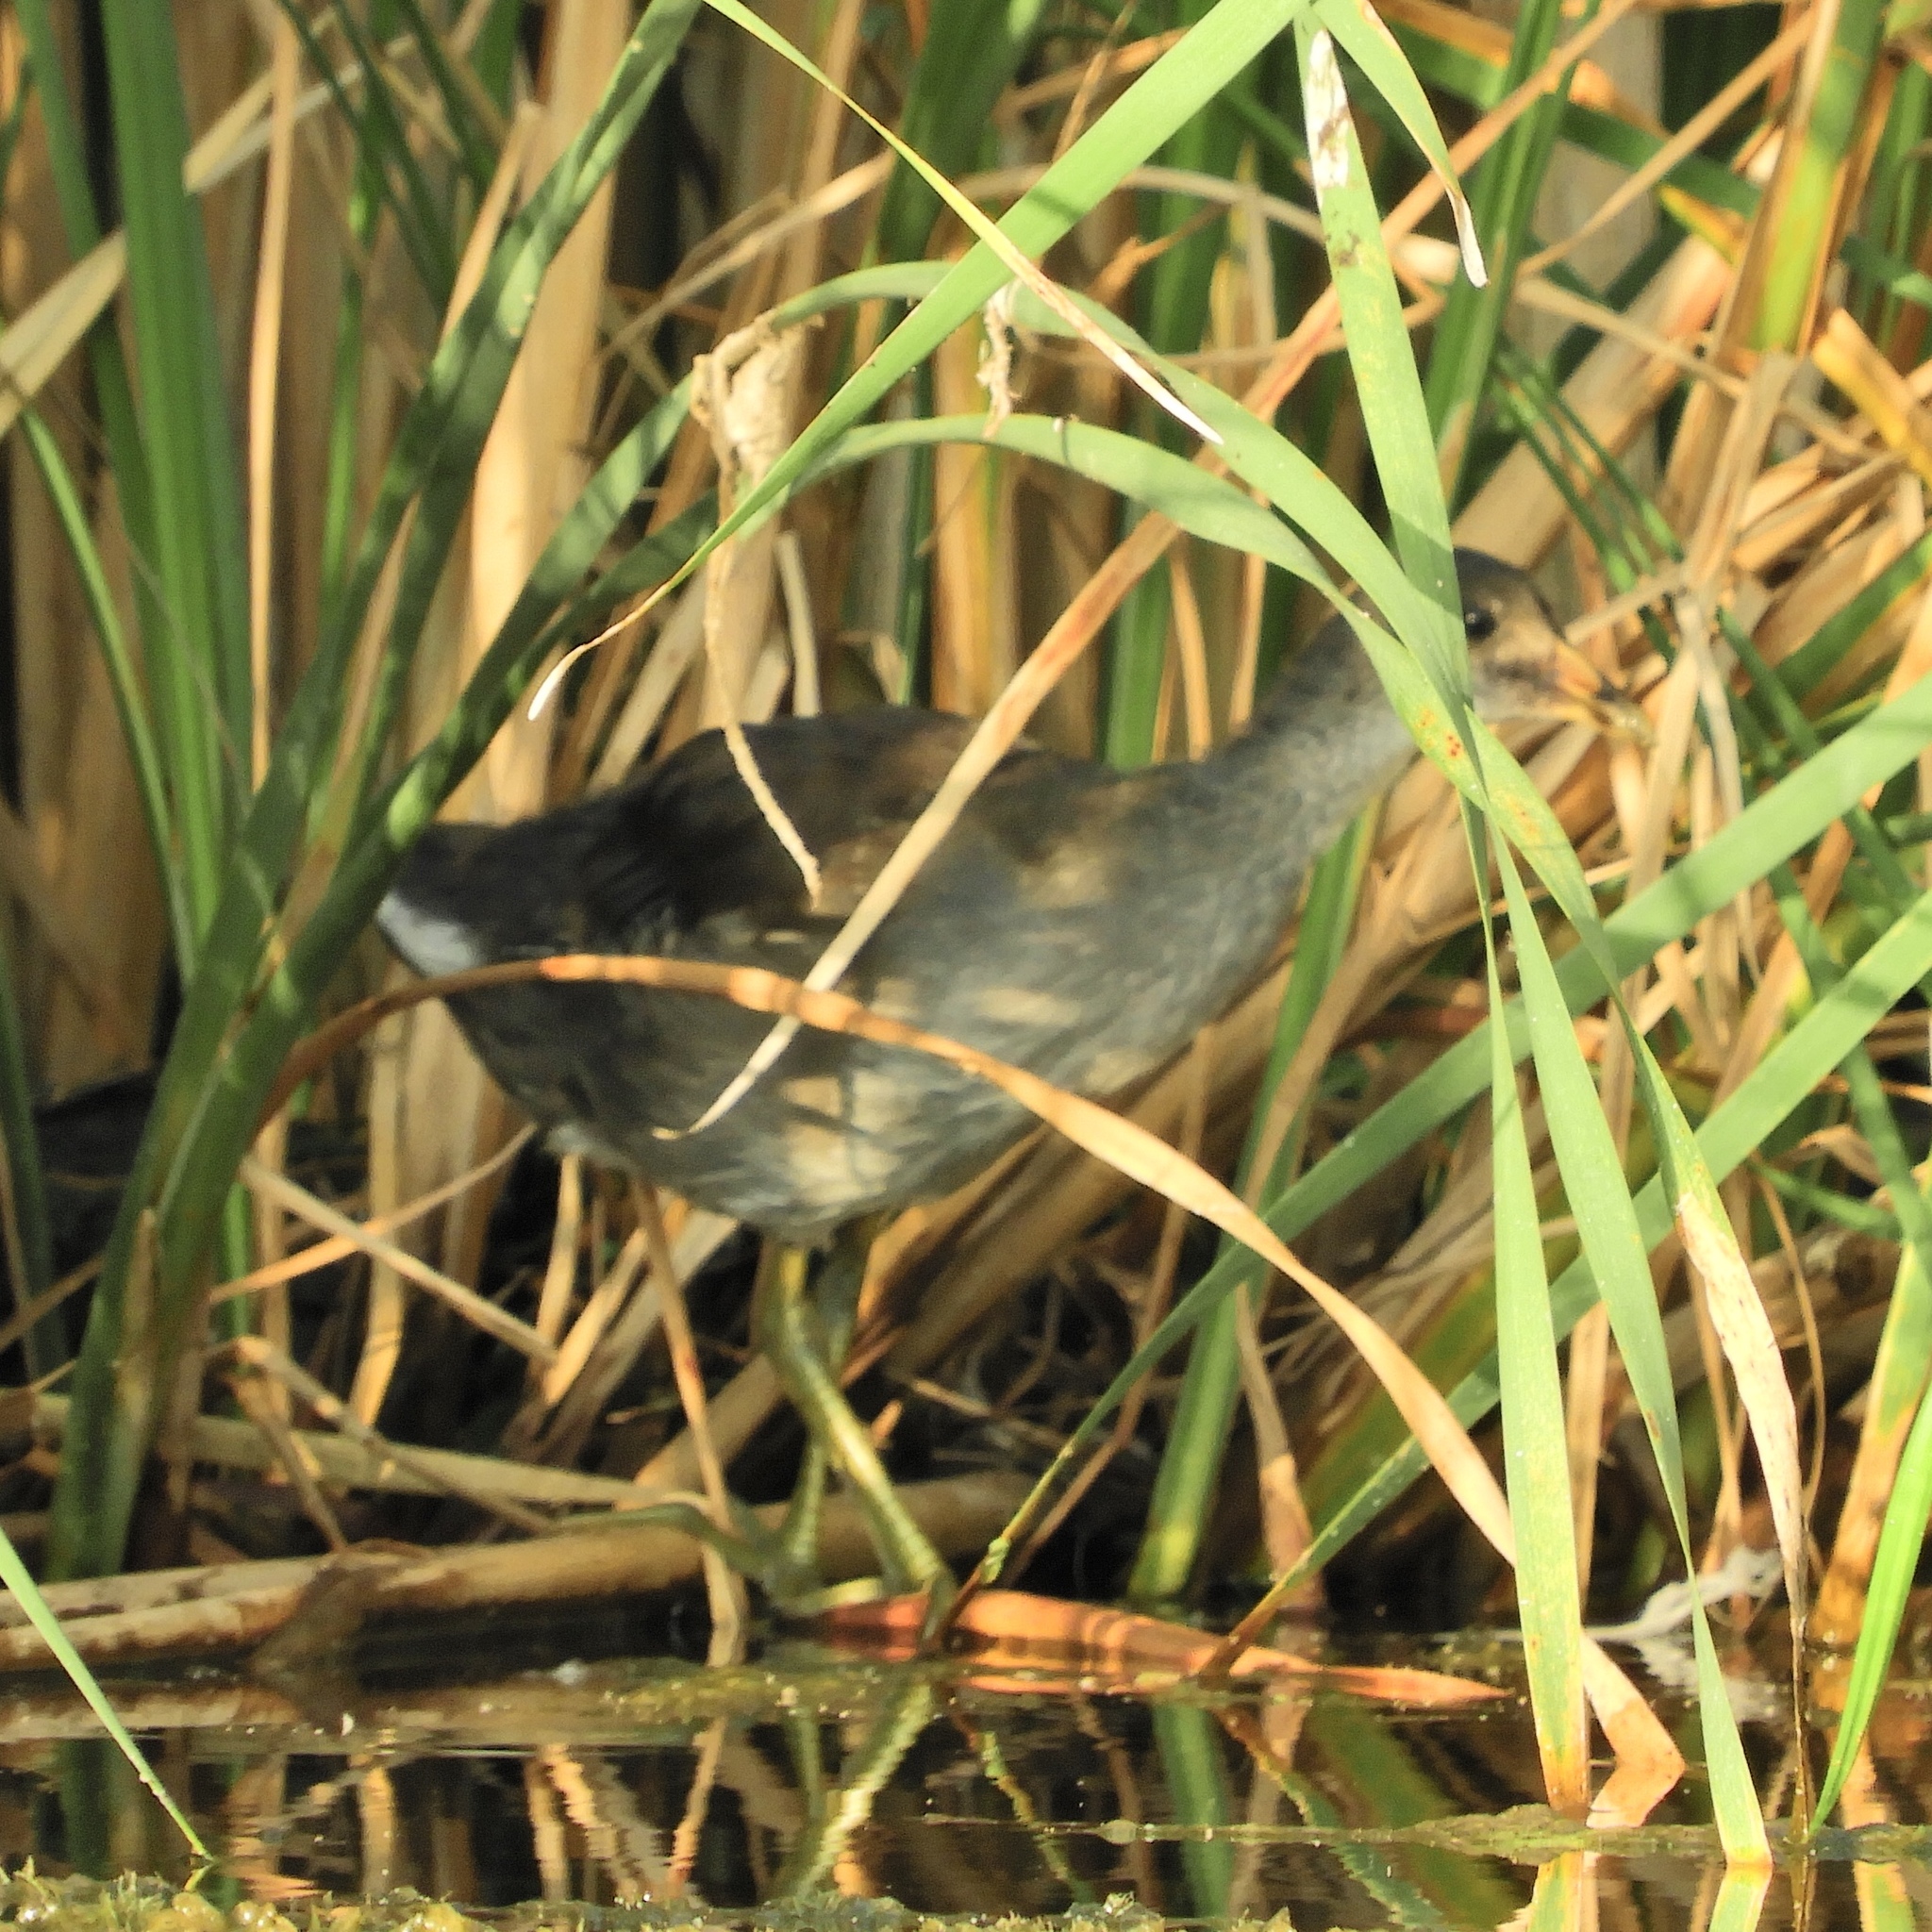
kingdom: Animalia
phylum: Chordata
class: Aves
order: Gruiformes
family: Rallidae
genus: Gallinula
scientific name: Gallinula chloropus
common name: Common moorhen
